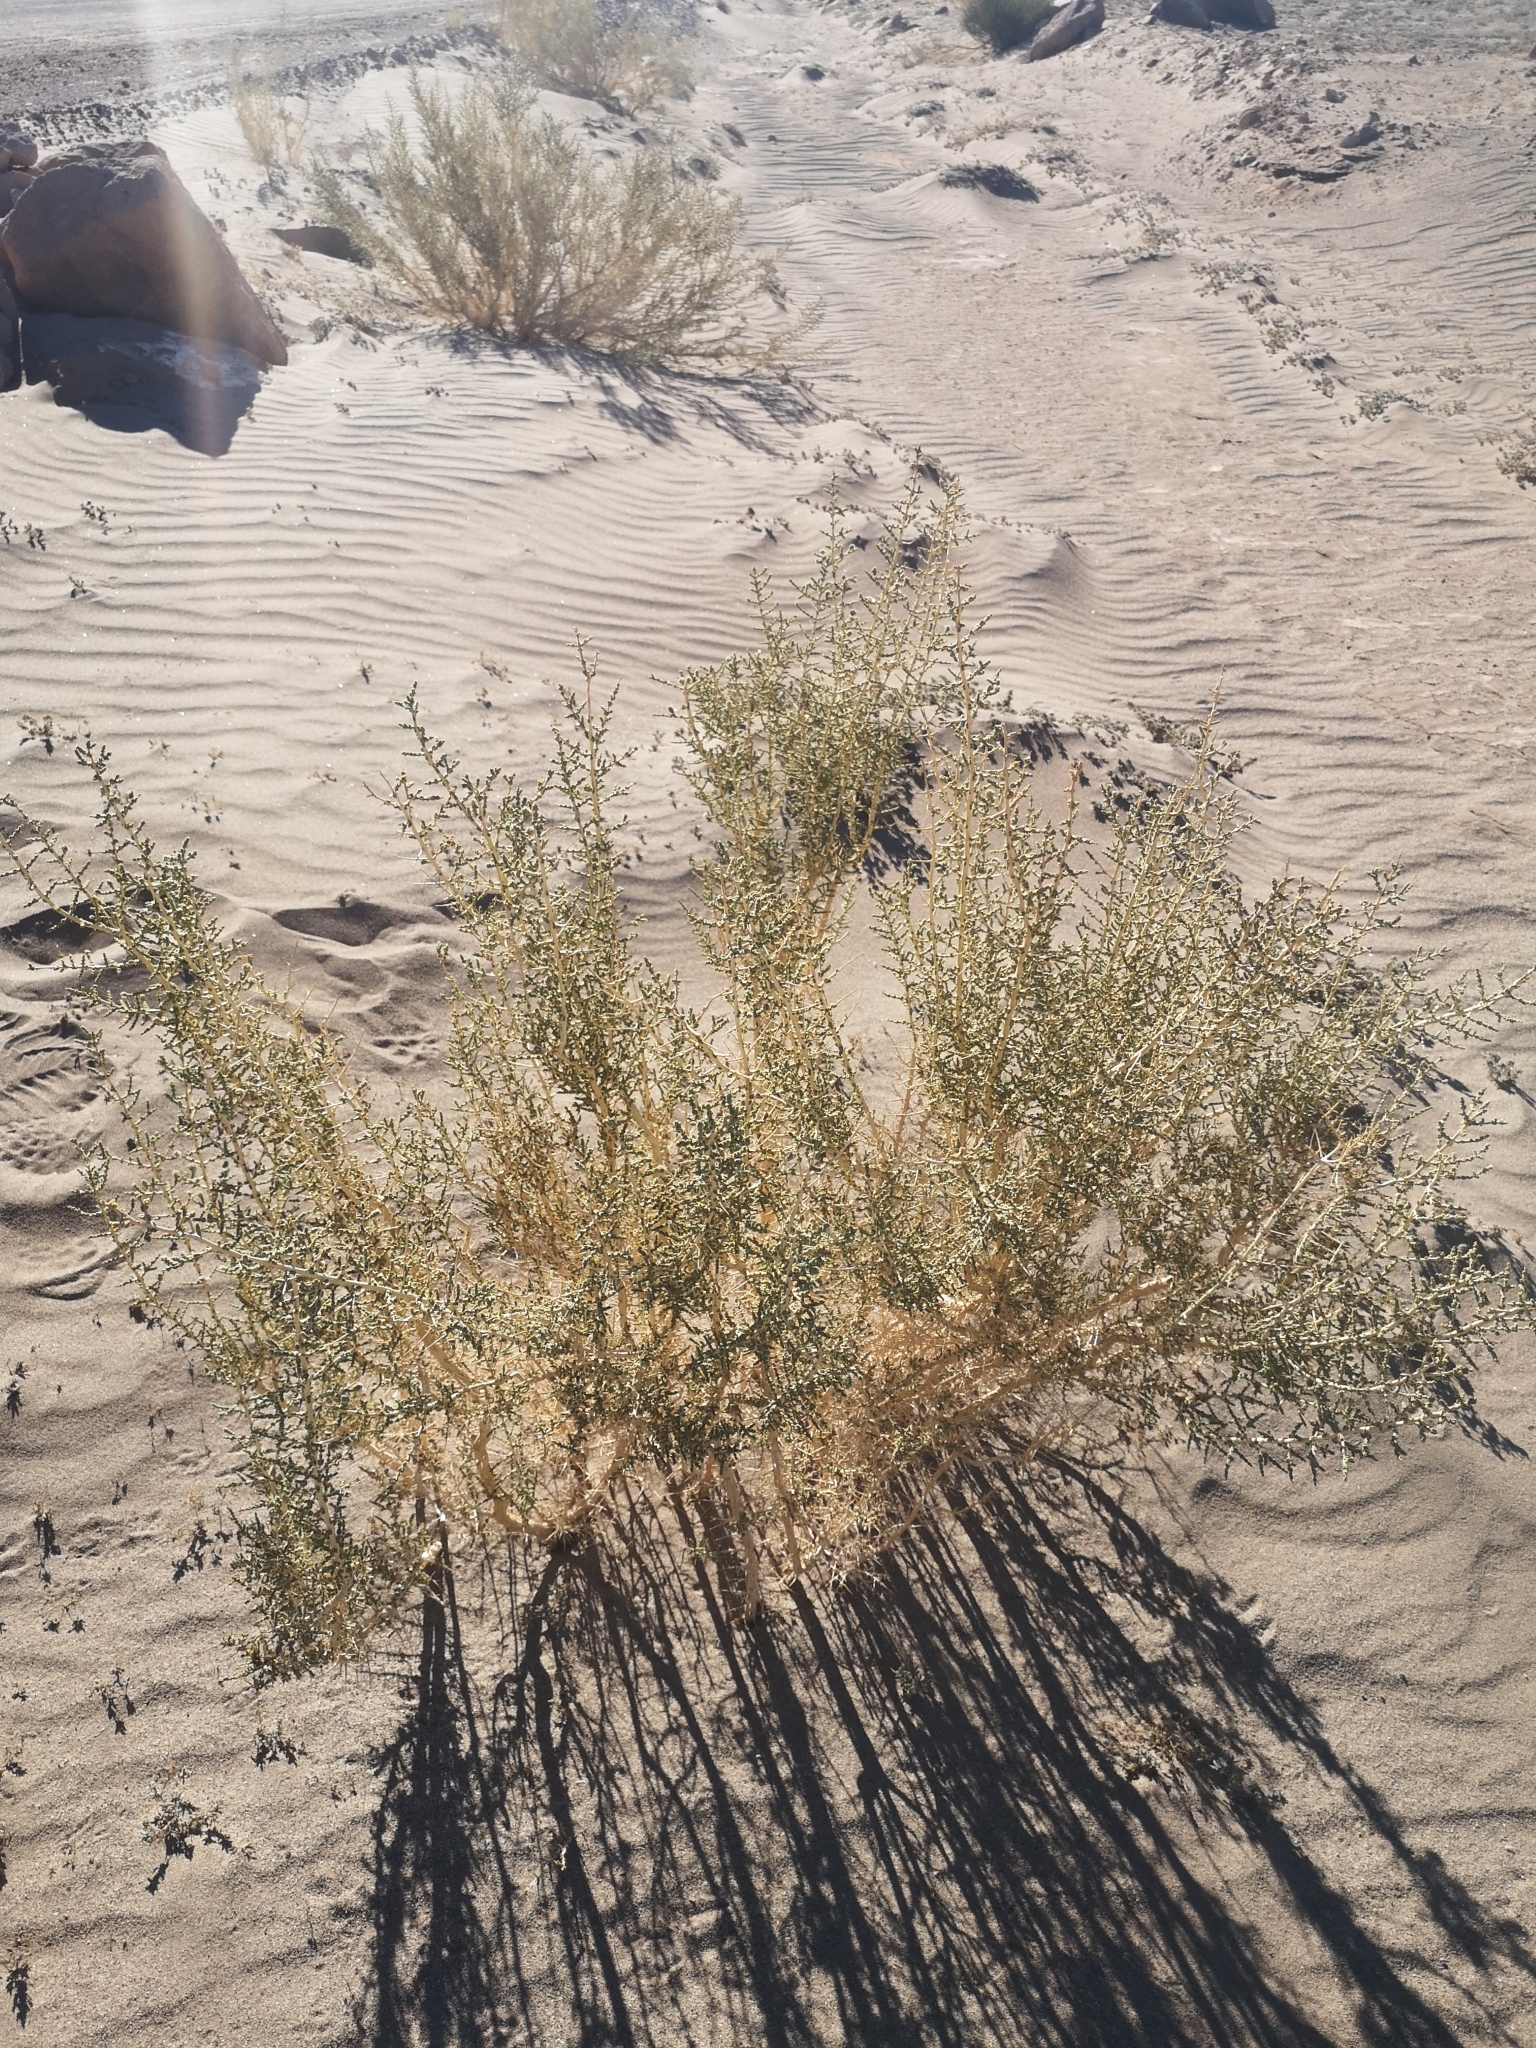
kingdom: Plantae
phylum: Tracheophyta
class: Magnoliopsida
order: Lamiales
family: Verbenaceae
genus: Aloysia
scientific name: Aloysia deserticola
